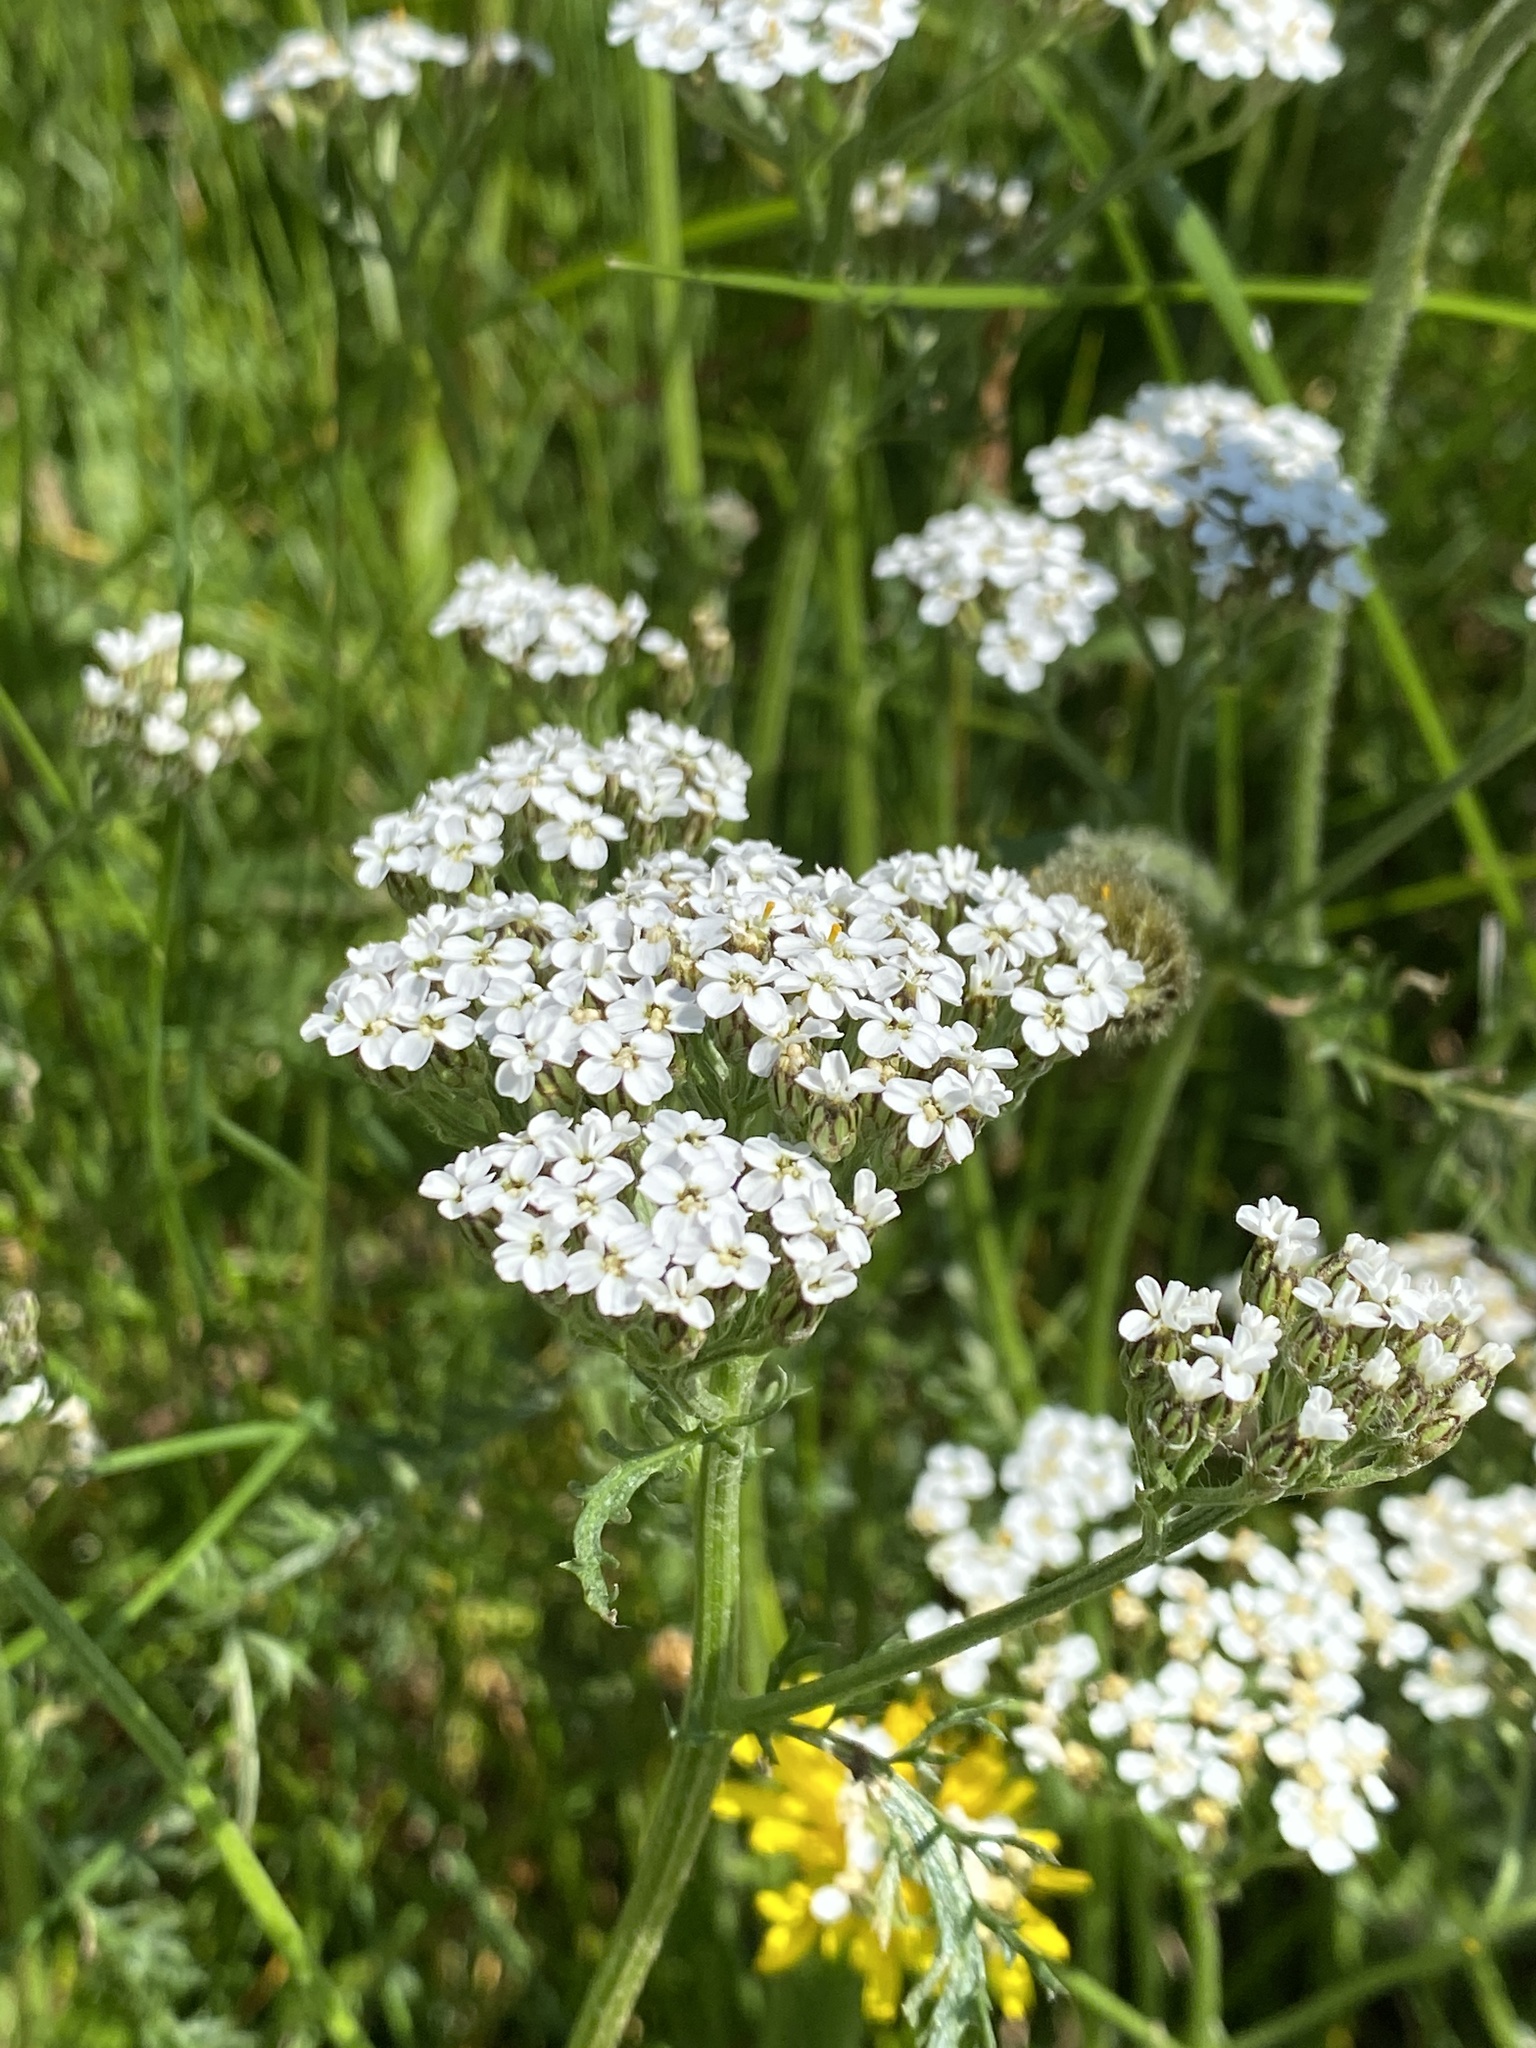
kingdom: Plantae
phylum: Tracheophyta
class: Magnoliopsida
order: Asterales
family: Asteraceae
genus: Achillea
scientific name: Achillea millefolium
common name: Yarrow
